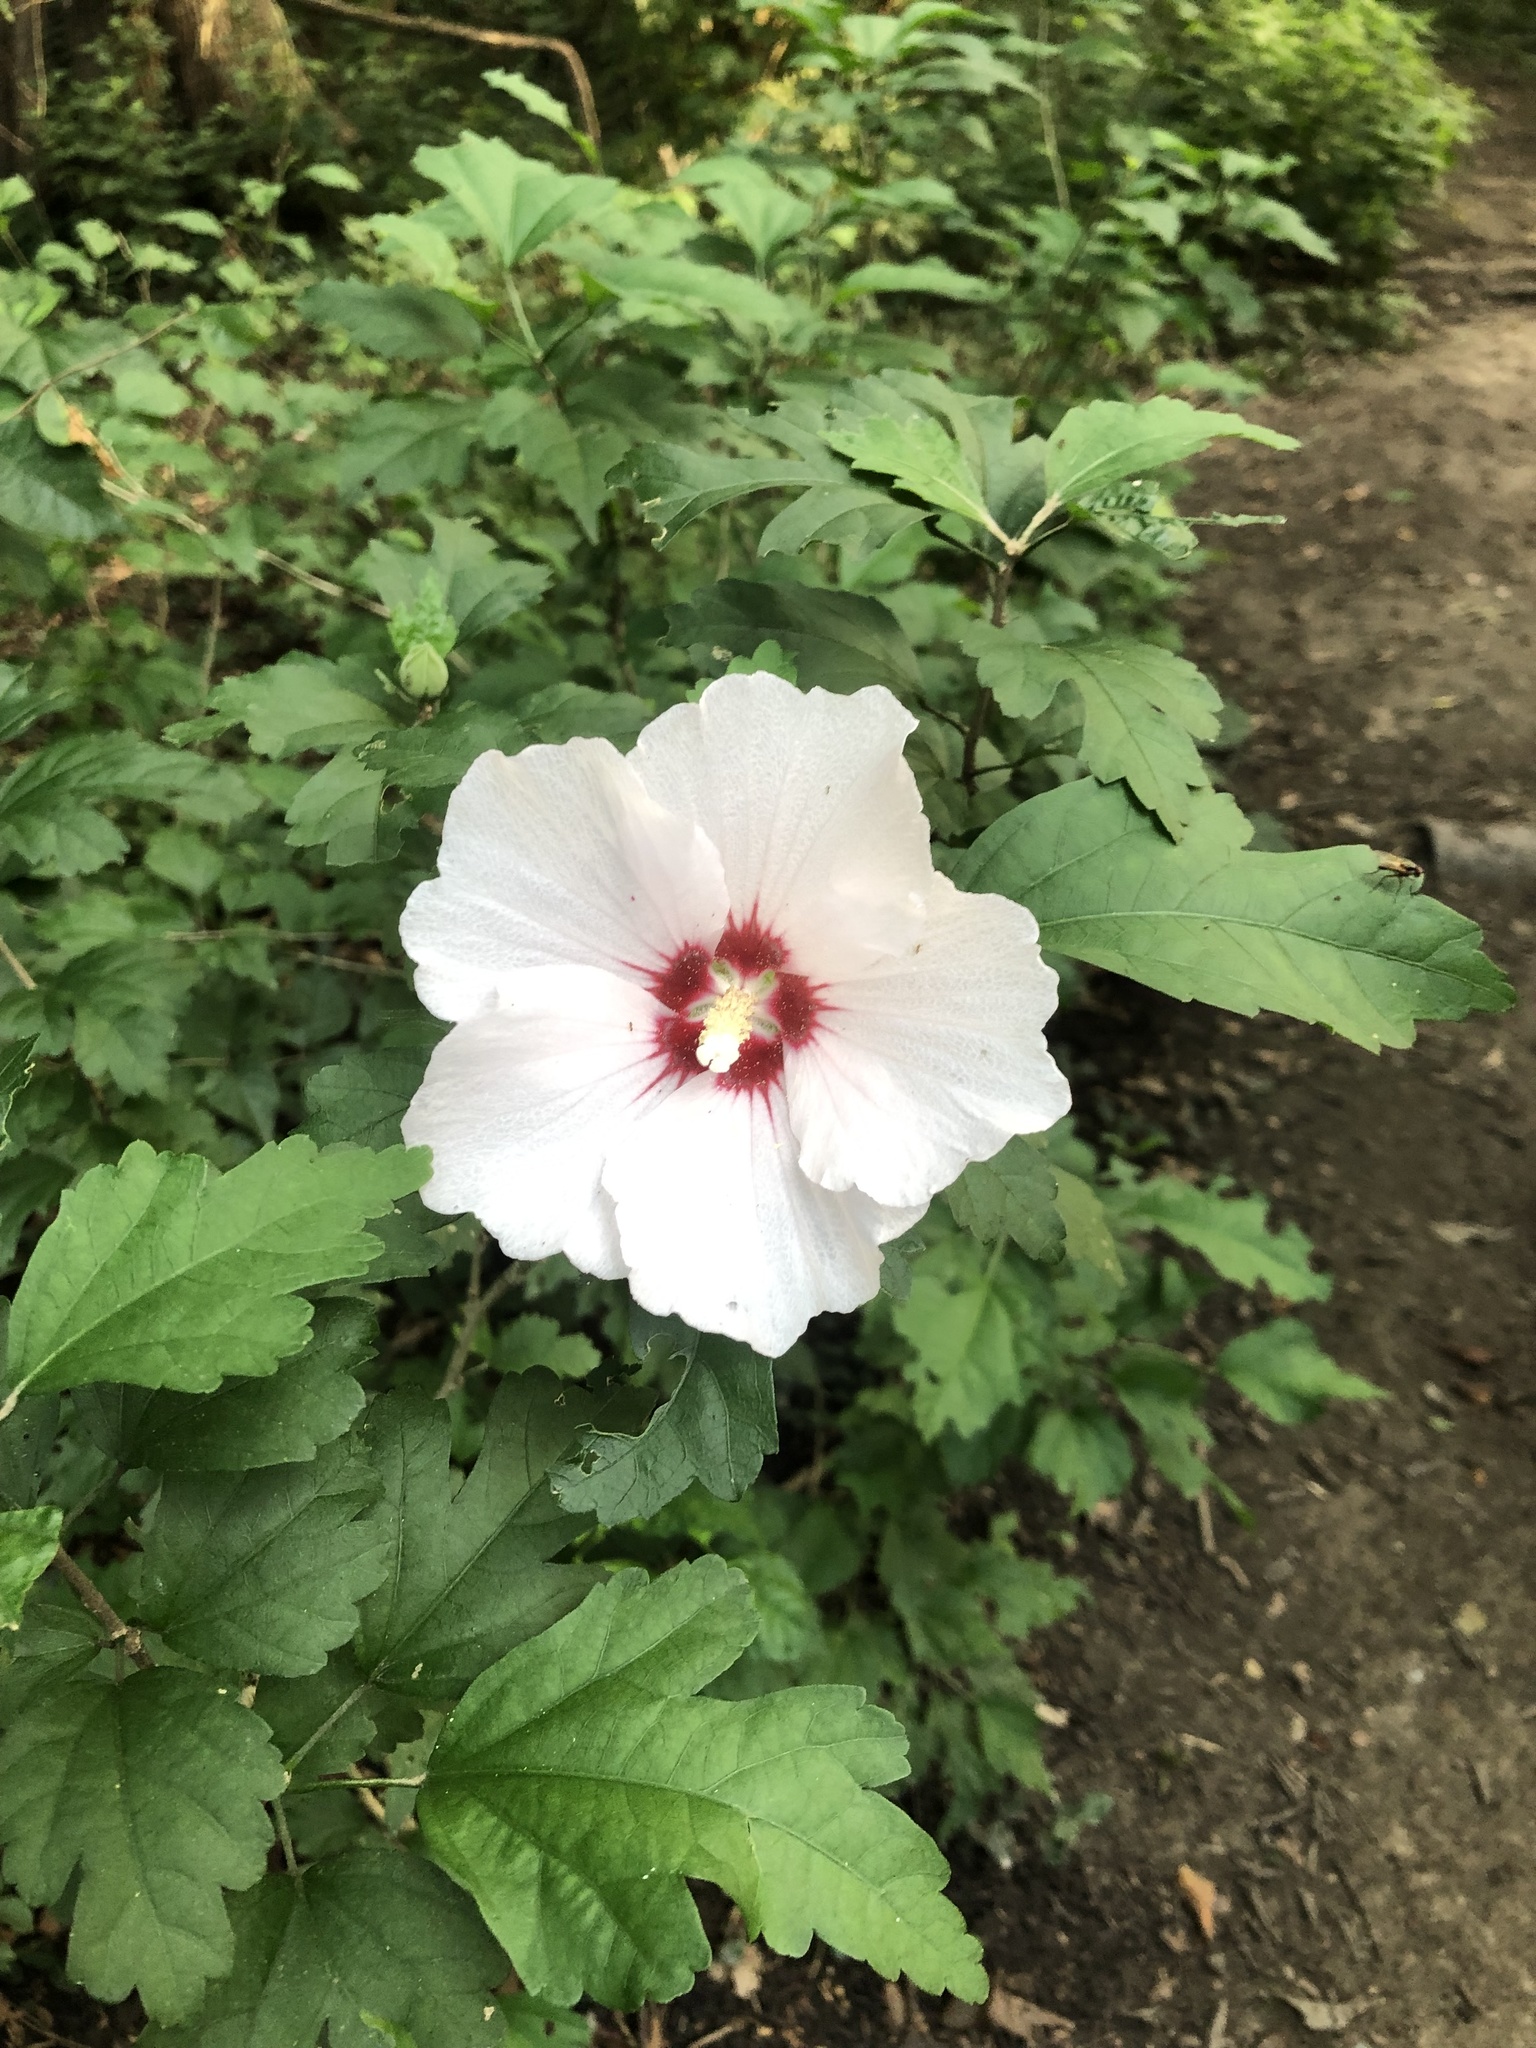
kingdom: Plantae
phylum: Tracheophyta
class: Magnoliopsida
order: Malvales
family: Malvaceae
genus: Hibiscus
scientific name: Hibiscus syriacus
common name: Syrian ketmia
